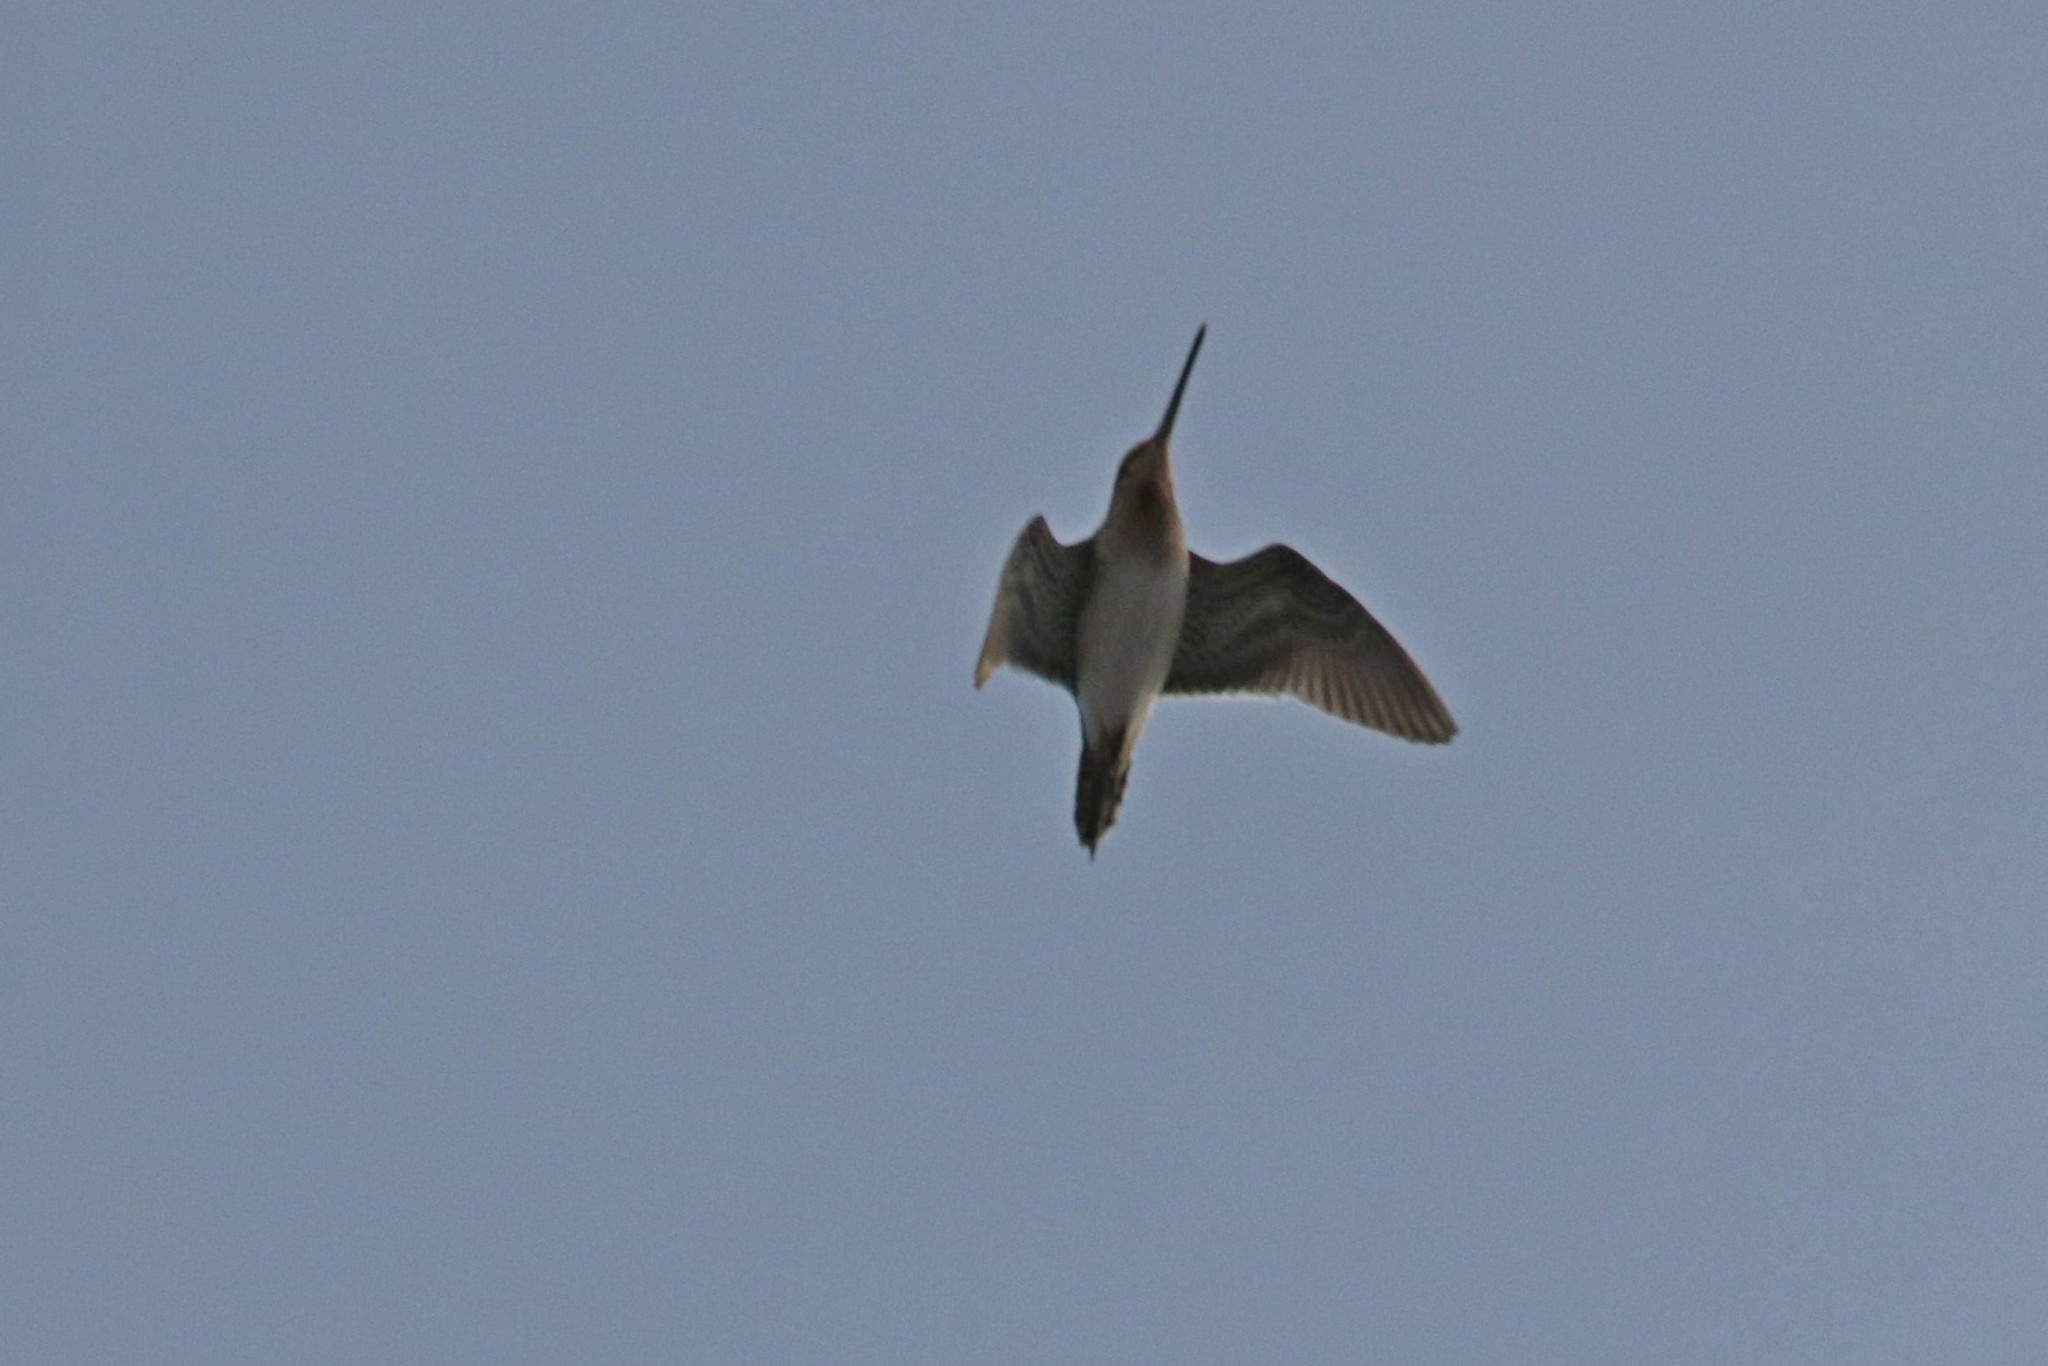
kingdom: Animalia
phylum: Chordata
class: Aves
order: Charadriiformes
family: Scolopacidae
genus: Gallinago
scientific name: Gallinago gallinago
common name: Common snipe
